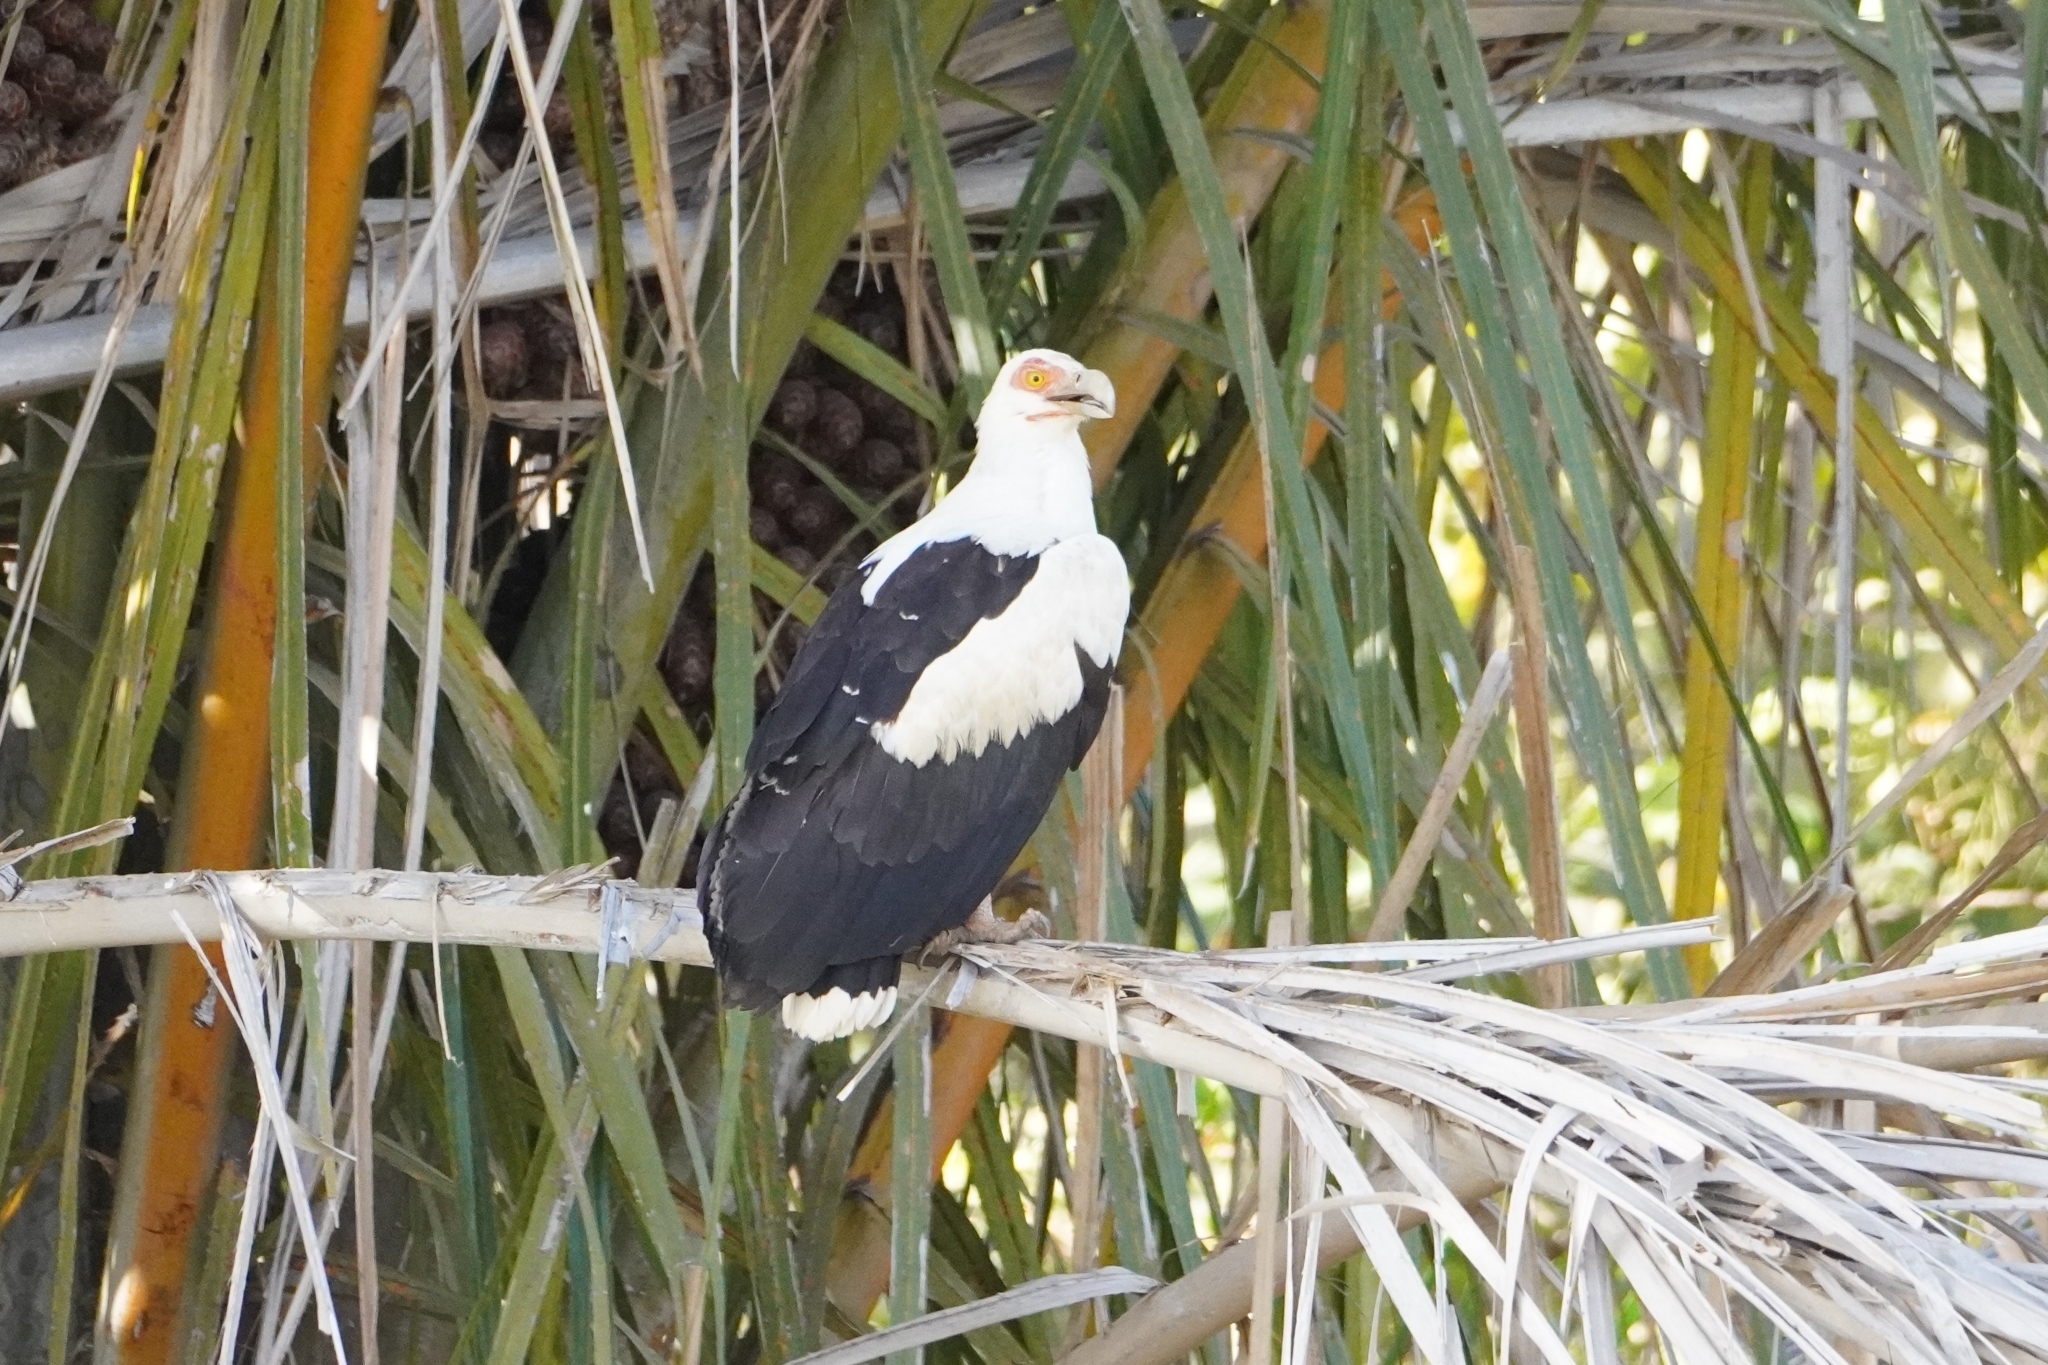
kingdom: Animalia
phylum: Chordata
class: Aves
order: Accipitriformes
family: Accipitridae
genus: Gypohierax
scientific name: Gypohierax angolensis
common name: Palm-nut vulture
